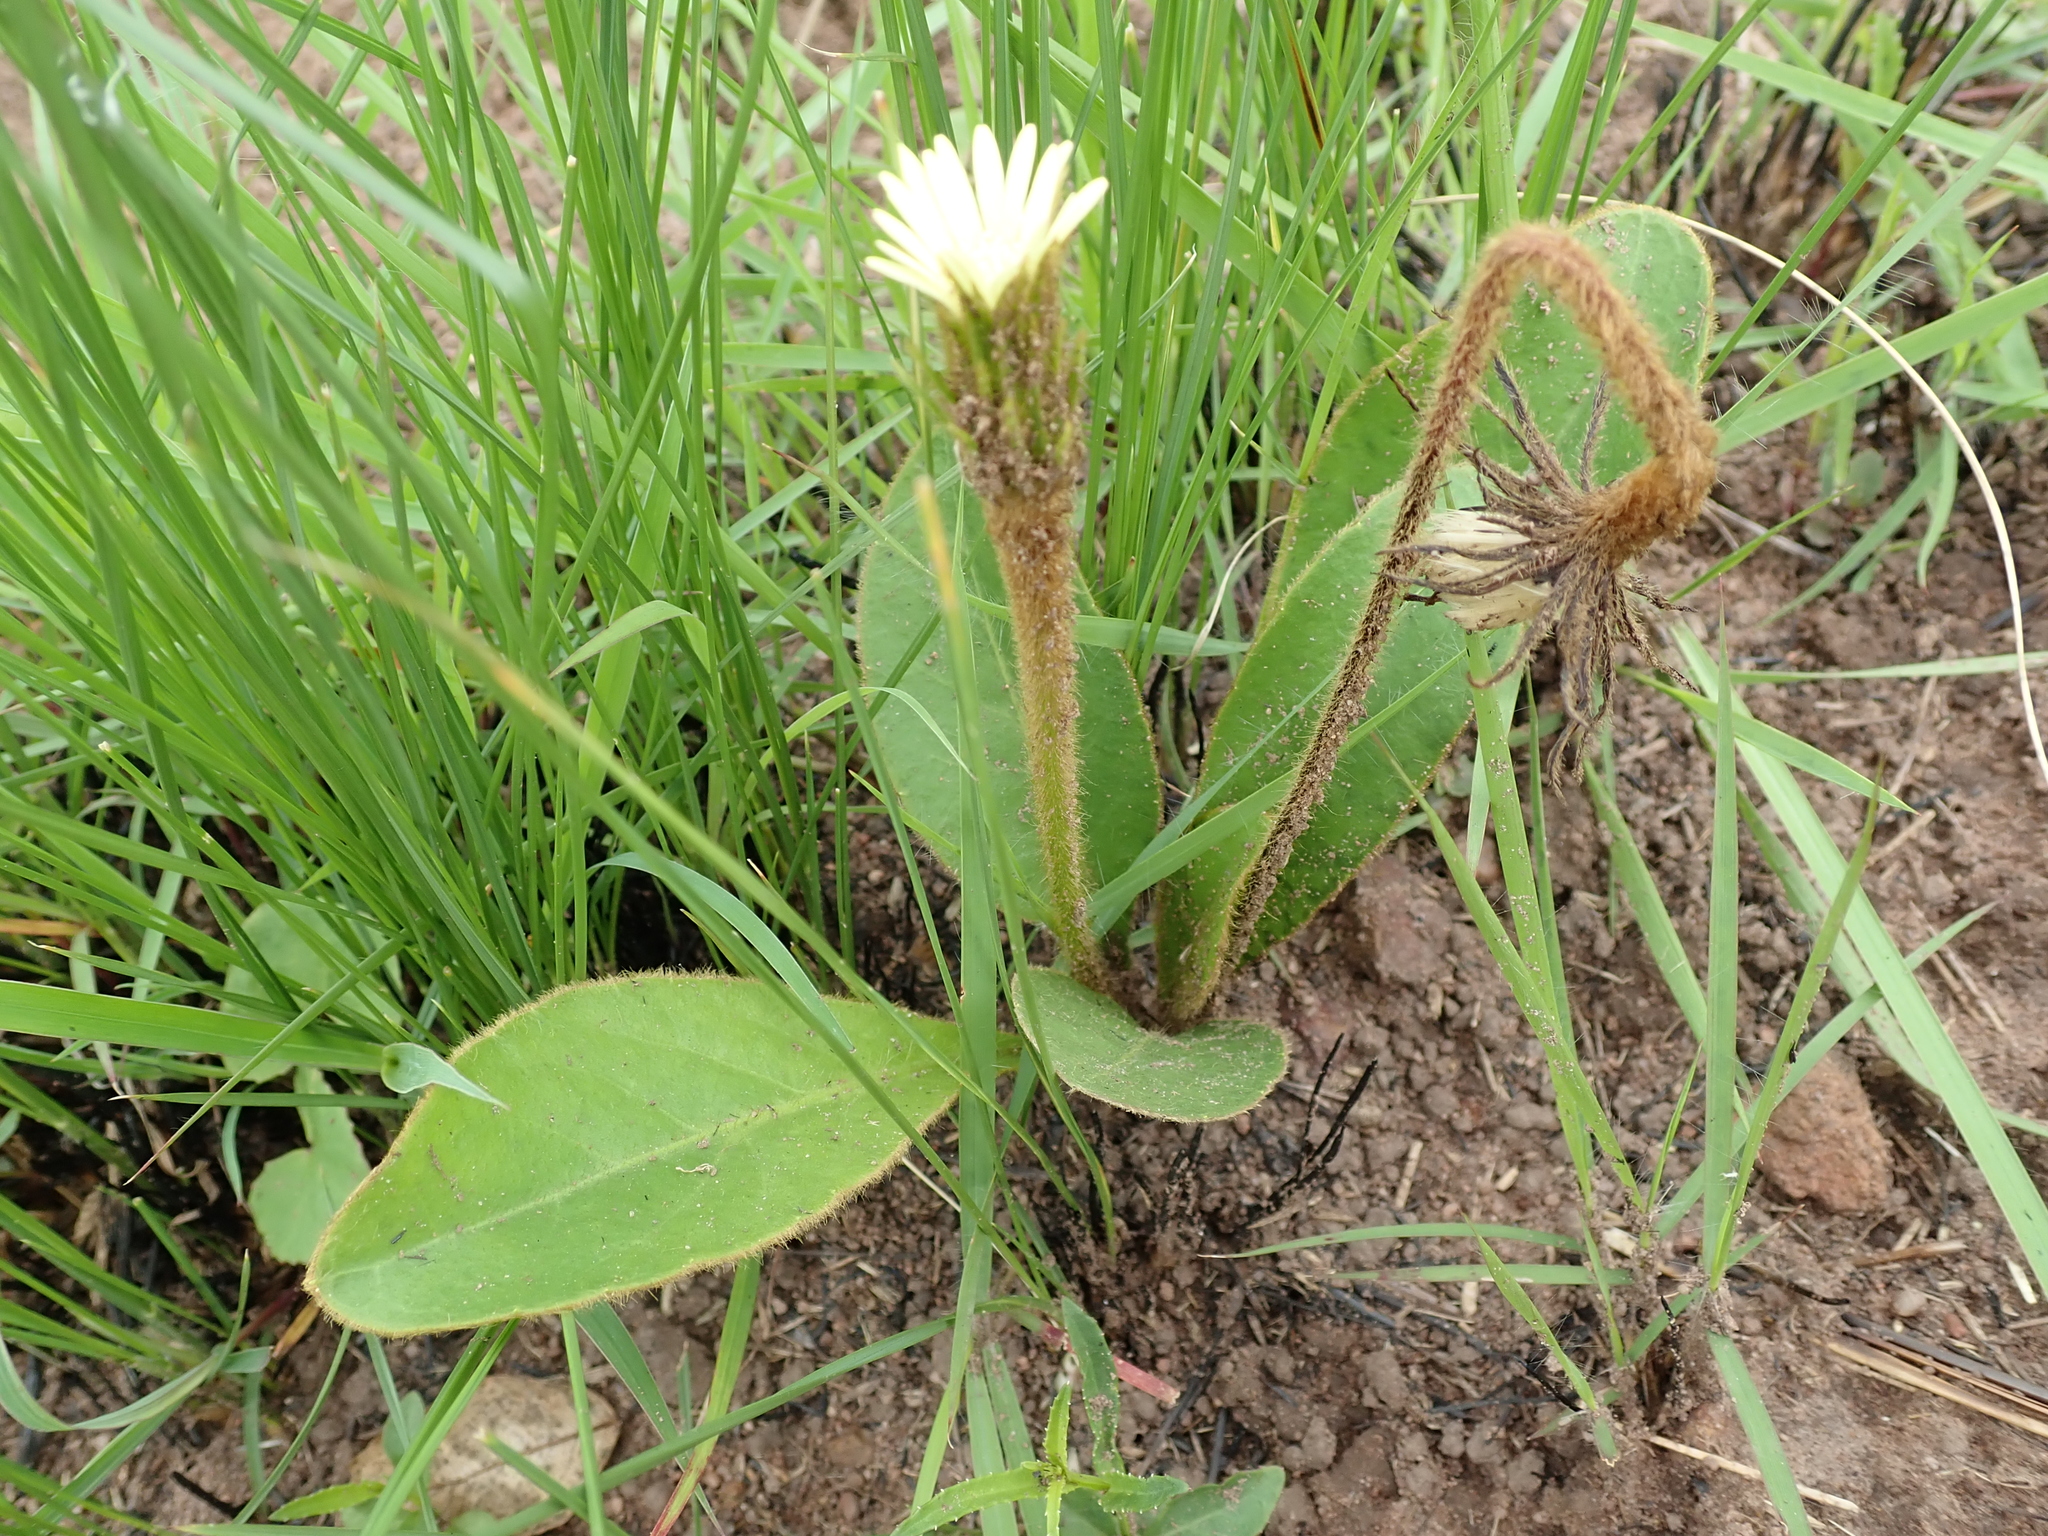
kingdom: Plantae
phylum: Tracheophyta
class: Magnoliopsida
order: Asterales
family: Asteraceae
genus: Piloselloides
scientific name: Piloselloides hirsuta
